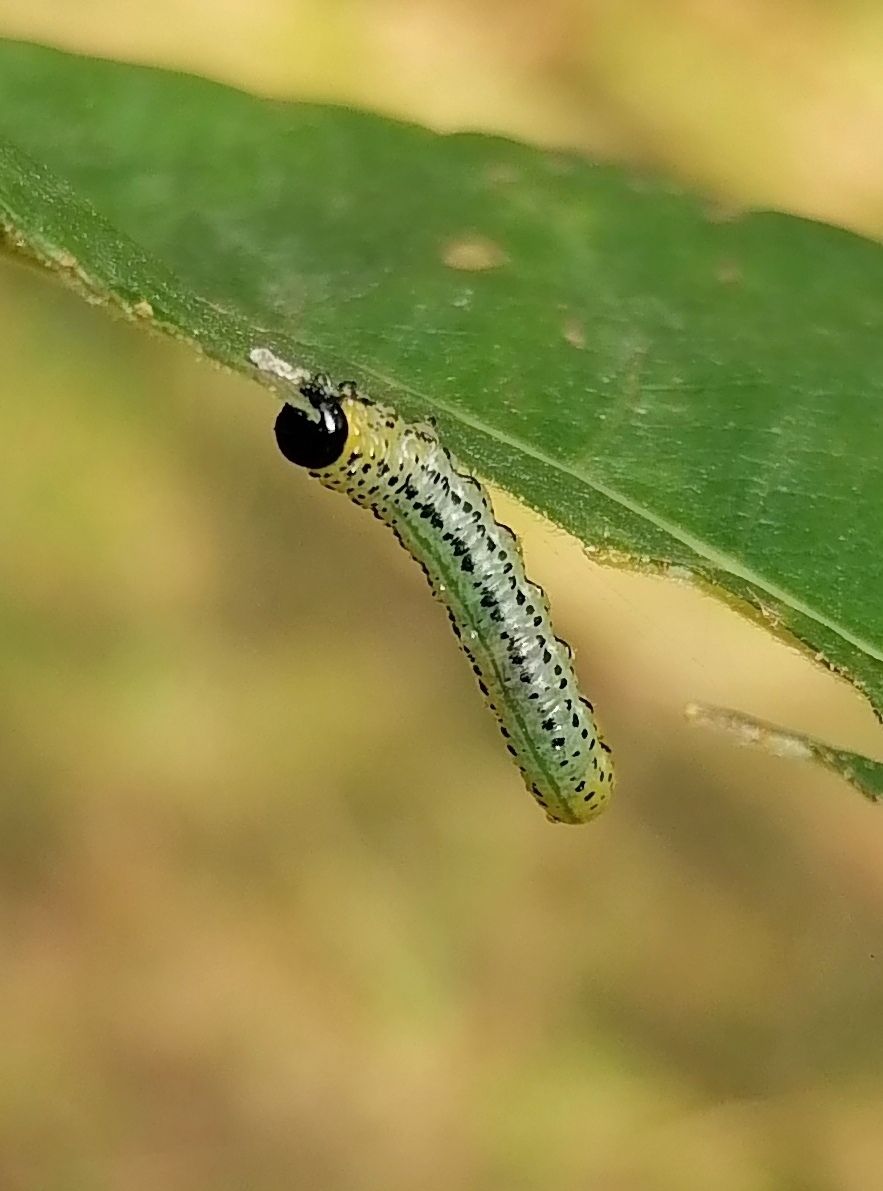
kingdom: Animalia
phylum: Arthropoda
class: Insecta
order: Hymenoptera
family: Tenthredinidae
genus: Nematus
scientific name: Nematus miliaris
